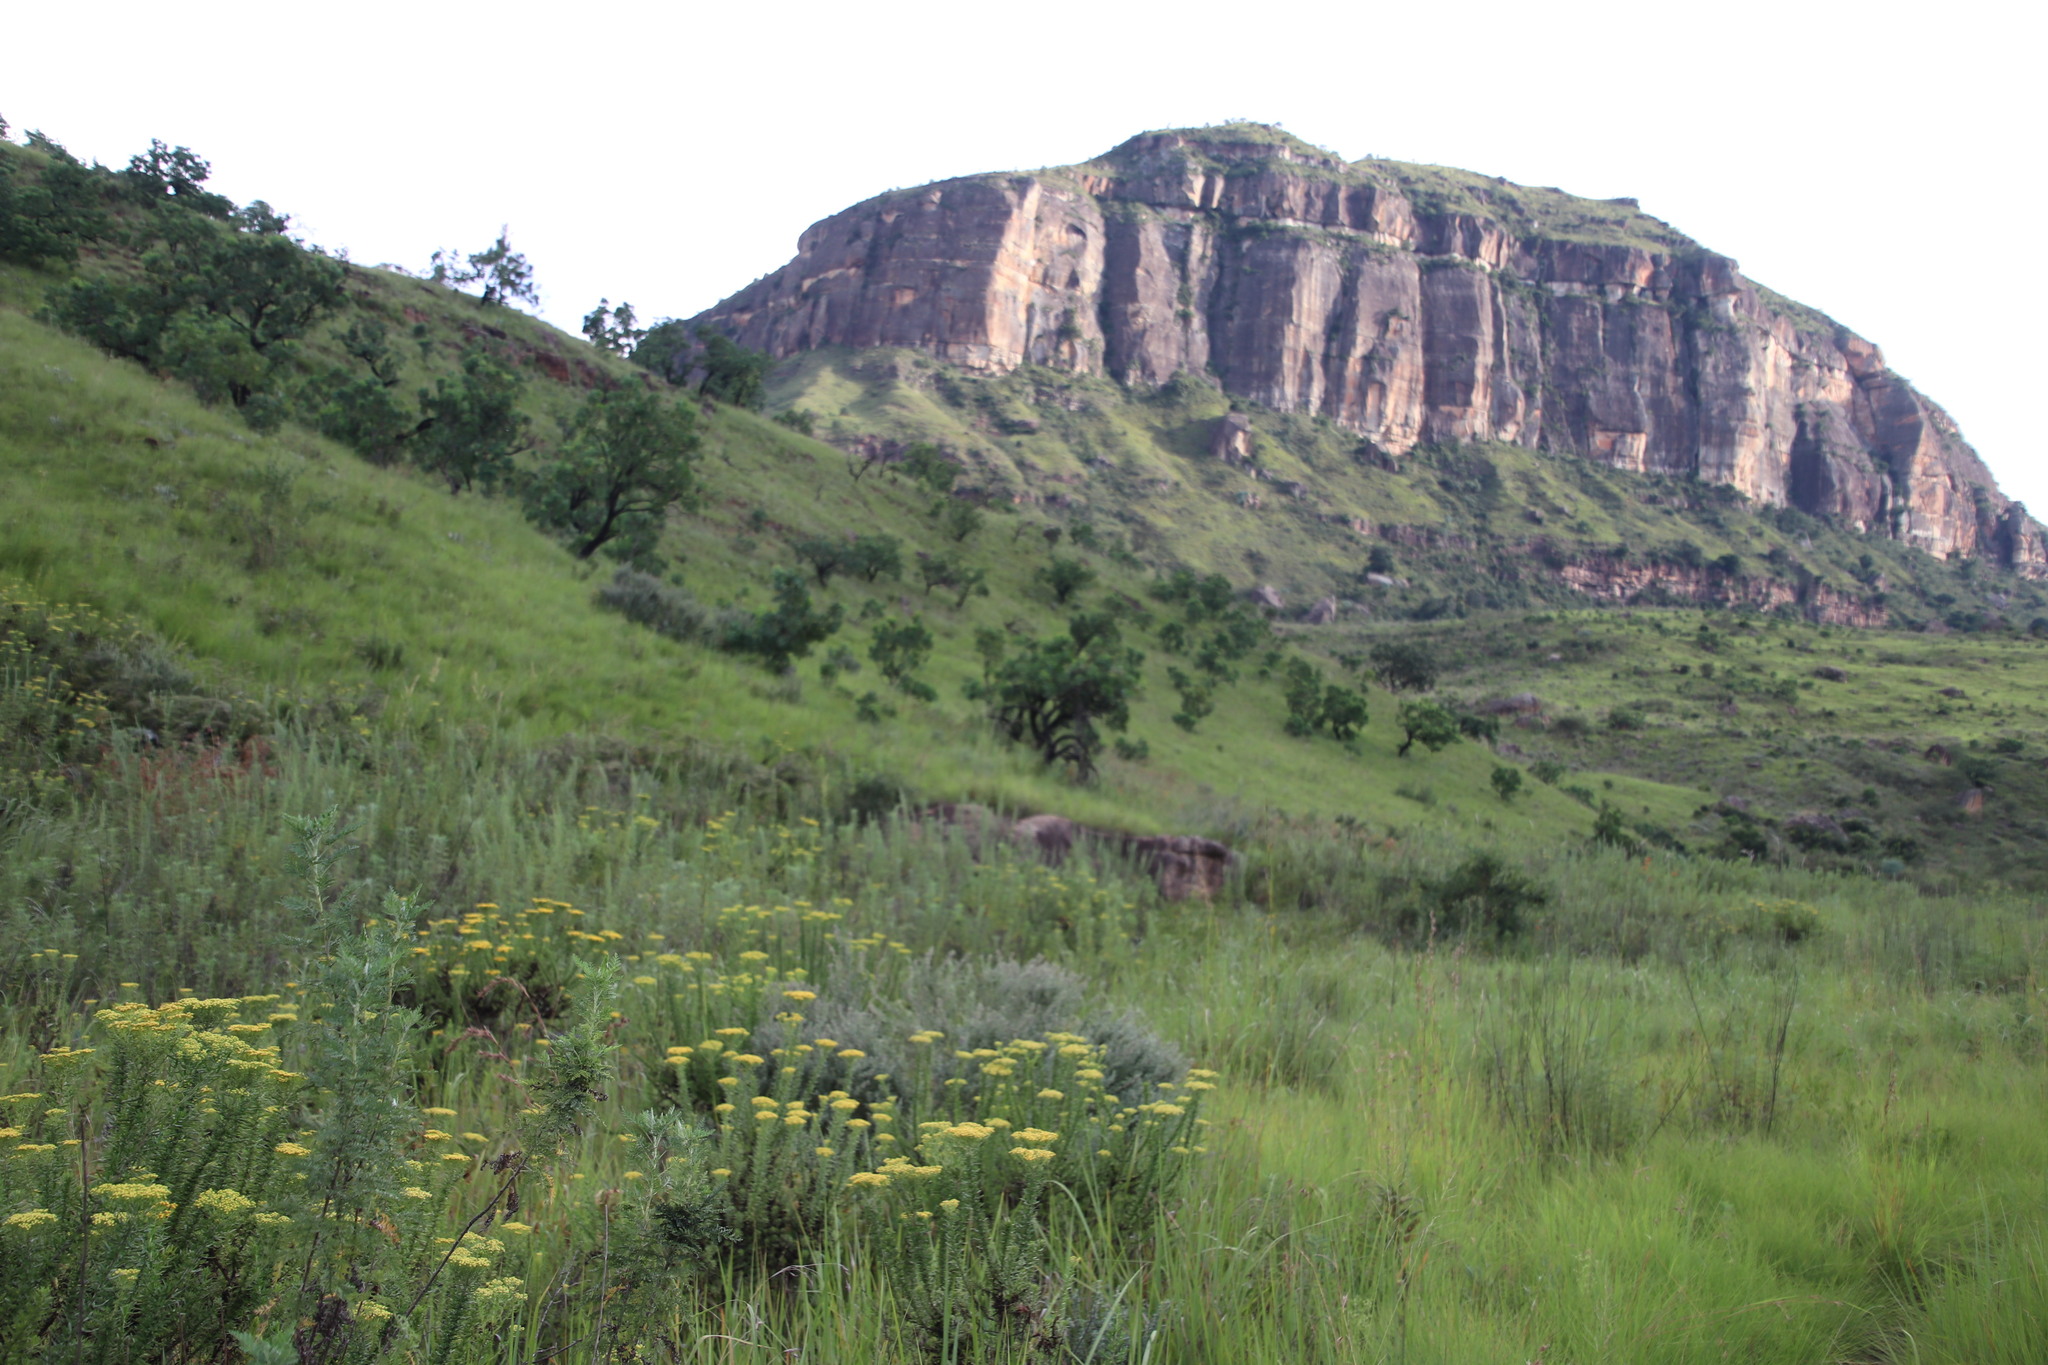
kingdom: Plantae
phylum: Tracheophyta
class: Magnoliopsida
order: Proteales
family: Proteaceae
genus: Protea
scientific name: Protea caffra
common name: Common sugarbush
